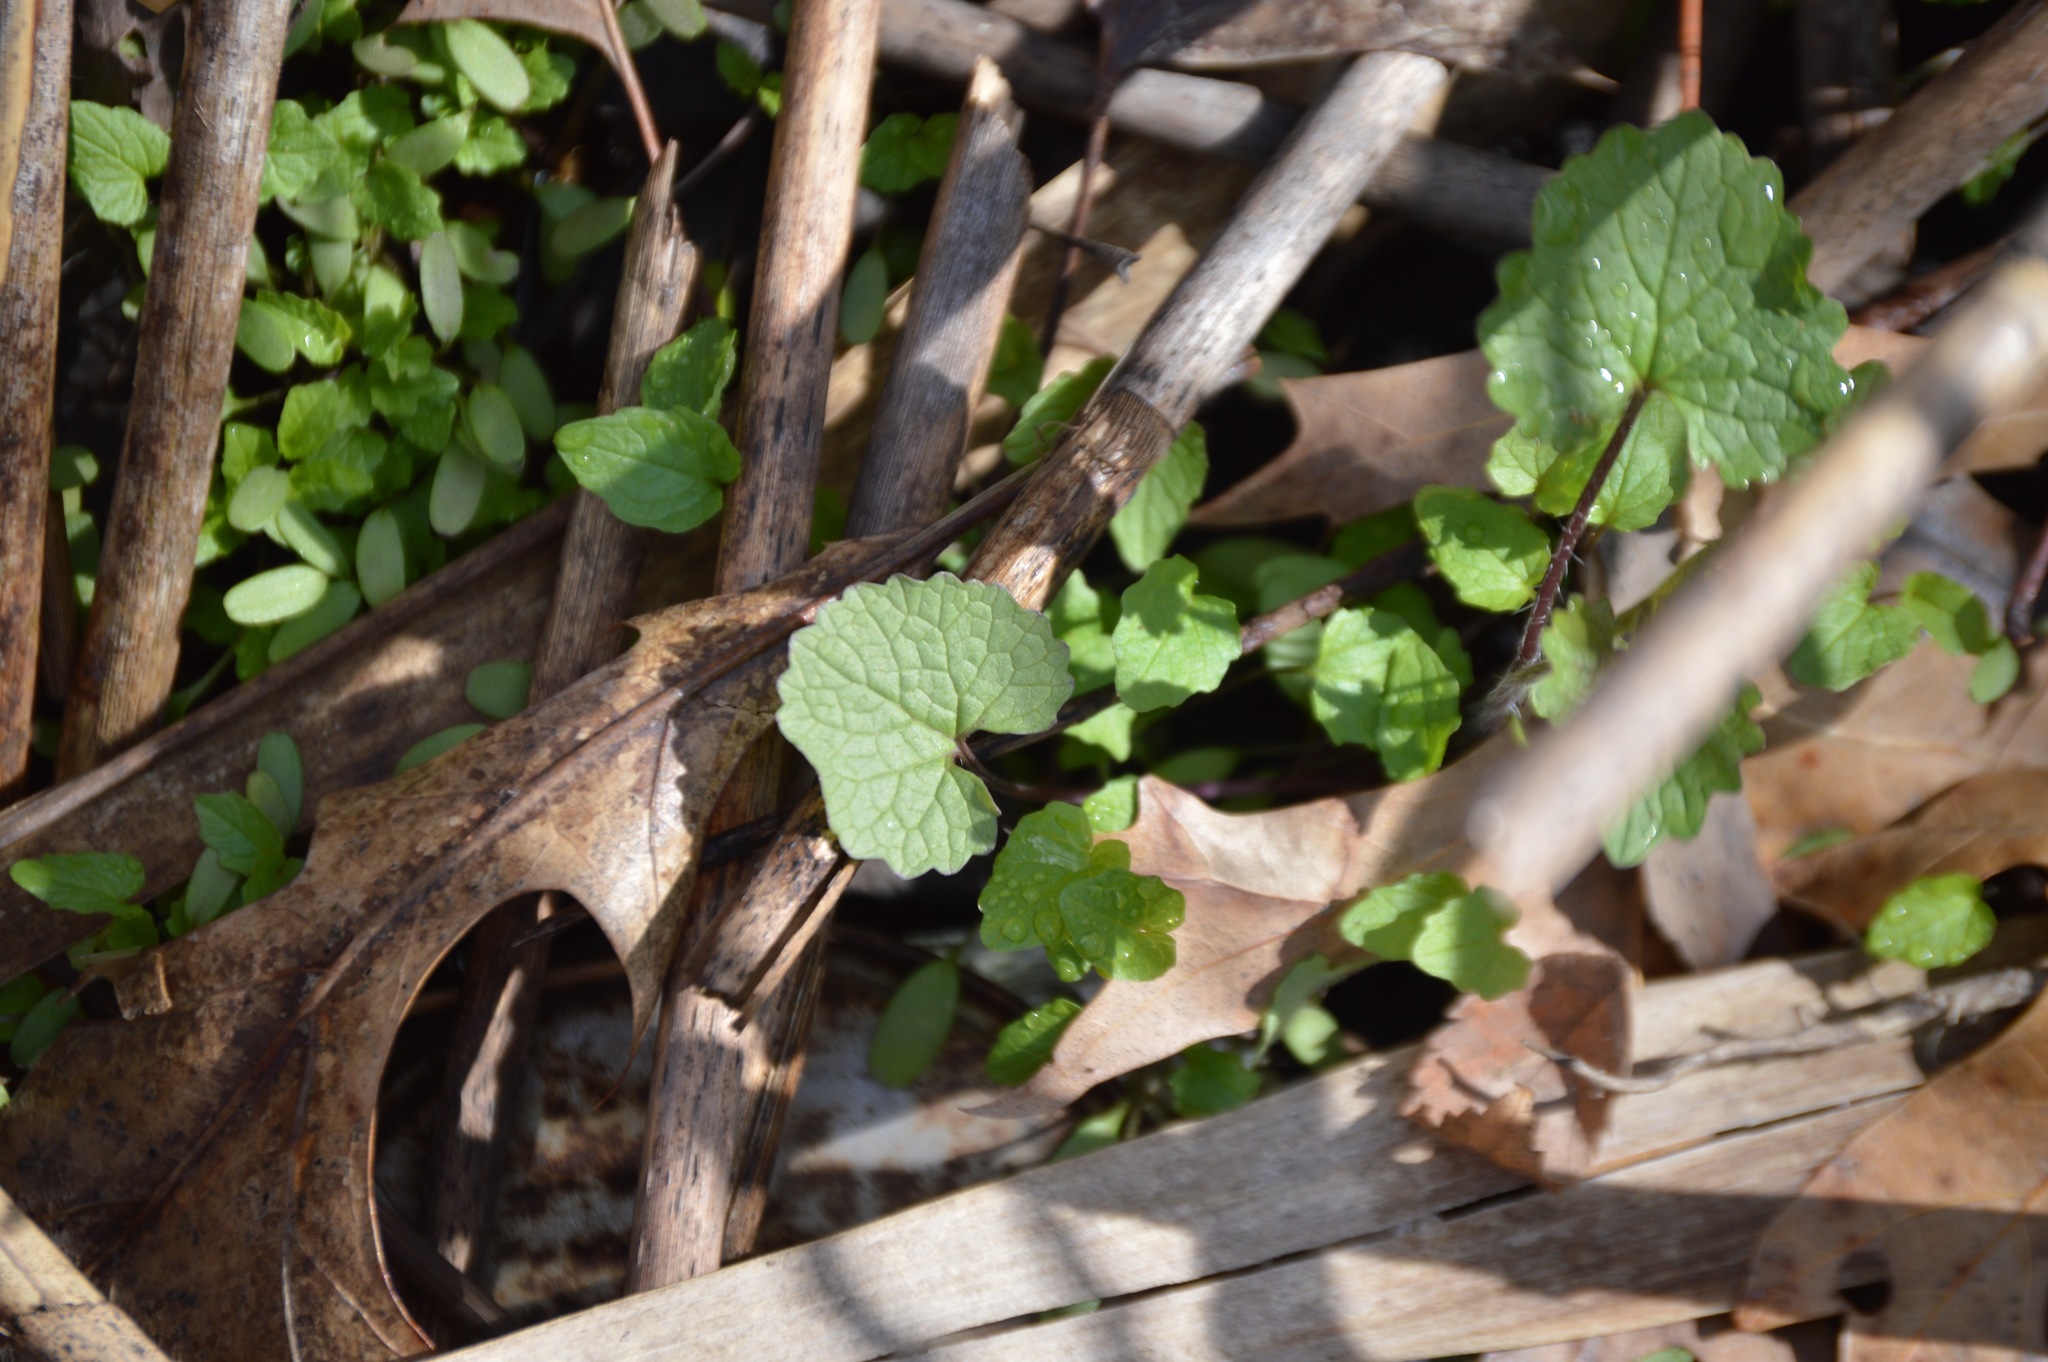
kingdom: Plantae
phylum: Tracheophyta
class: Magnoliopsida
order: Brassicales
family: Brassicaceae
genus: Alliaria
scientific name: Alliaria petiolata
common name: Garlic mustard
